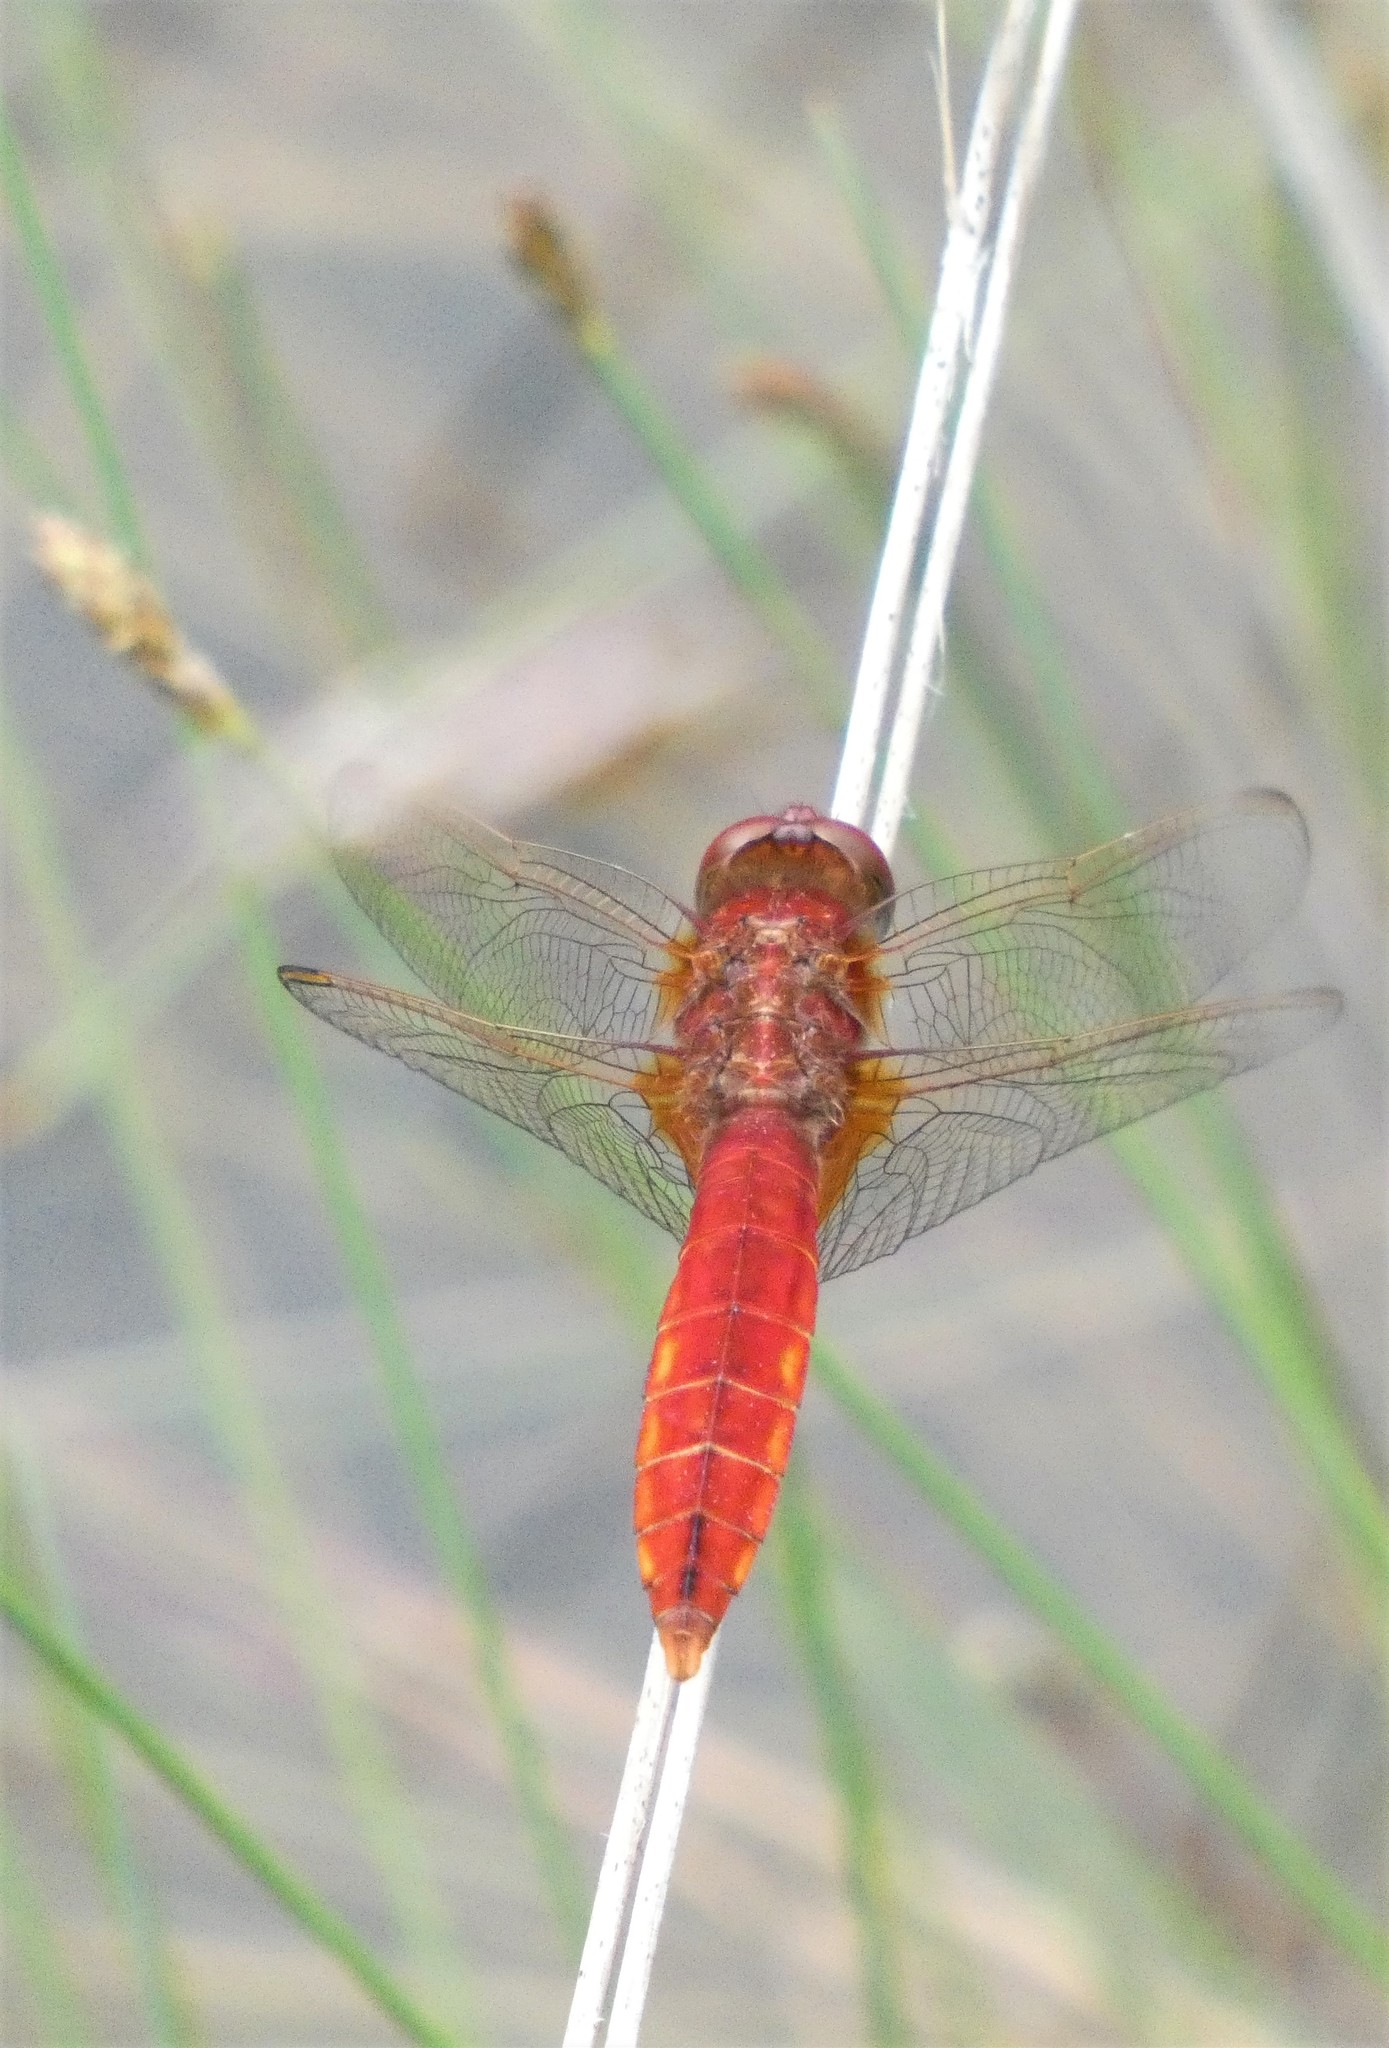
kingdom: Animalia
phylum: Arthropoda
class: Insecta
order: Odonata
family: Libellulidae
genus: Crocothemis
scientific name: Crocothemis erythraea
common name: Scarlet dragonfly
